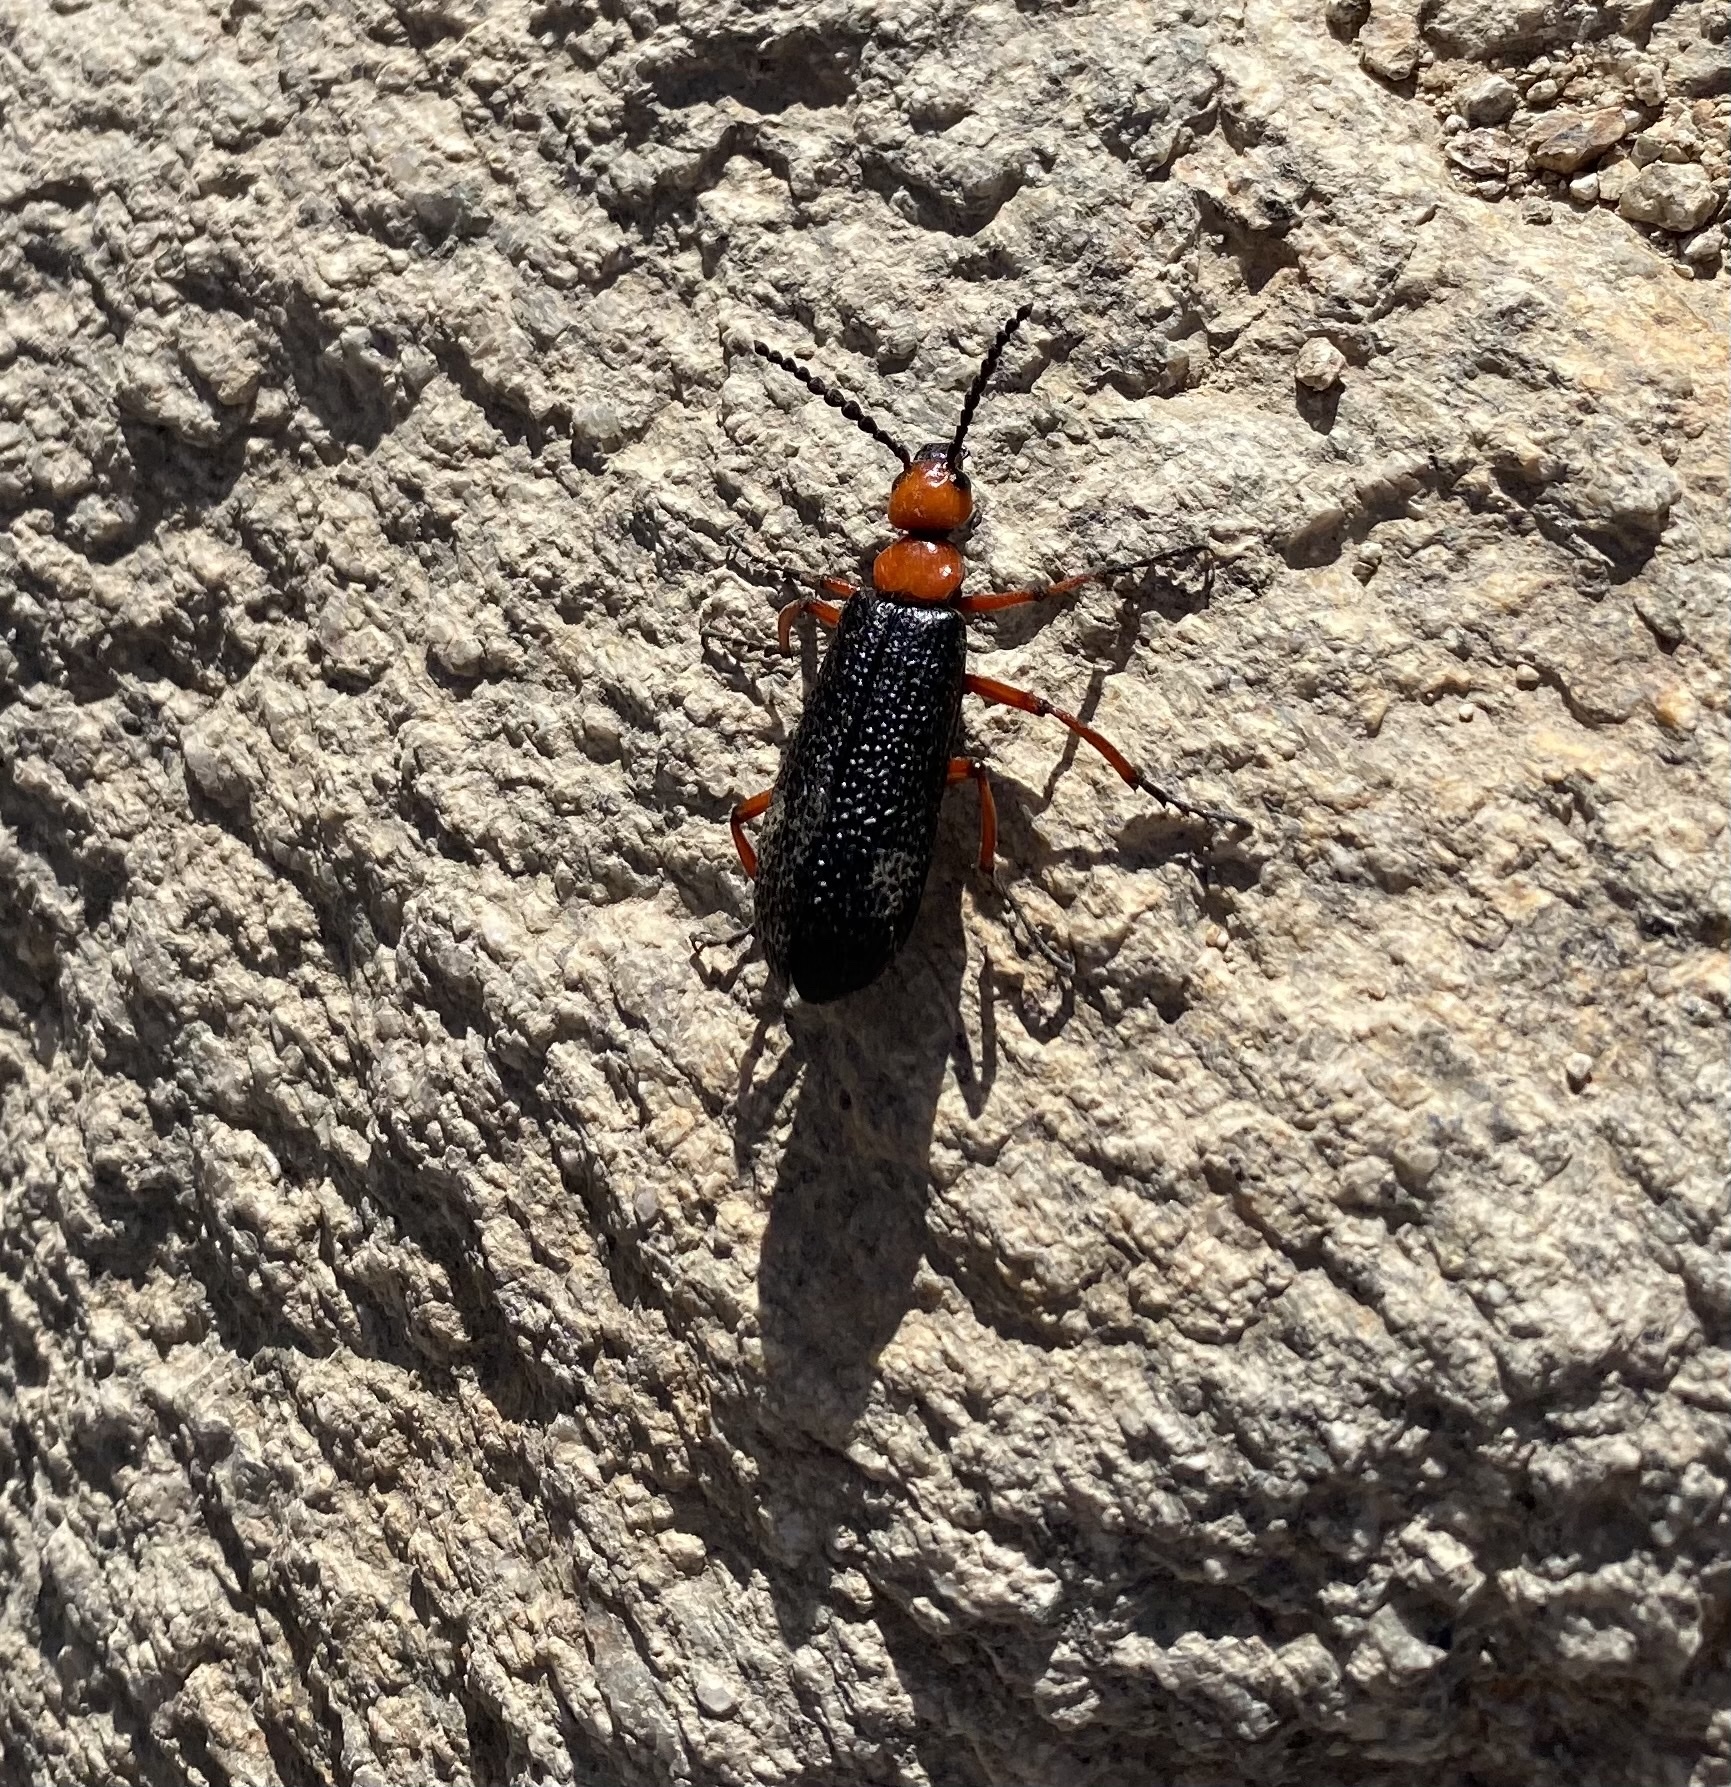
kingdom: Animalia
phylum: Arthropoda
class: Insecta
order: Coleoptera
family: Meloidae
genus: Lytta
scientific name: Lytta magister
